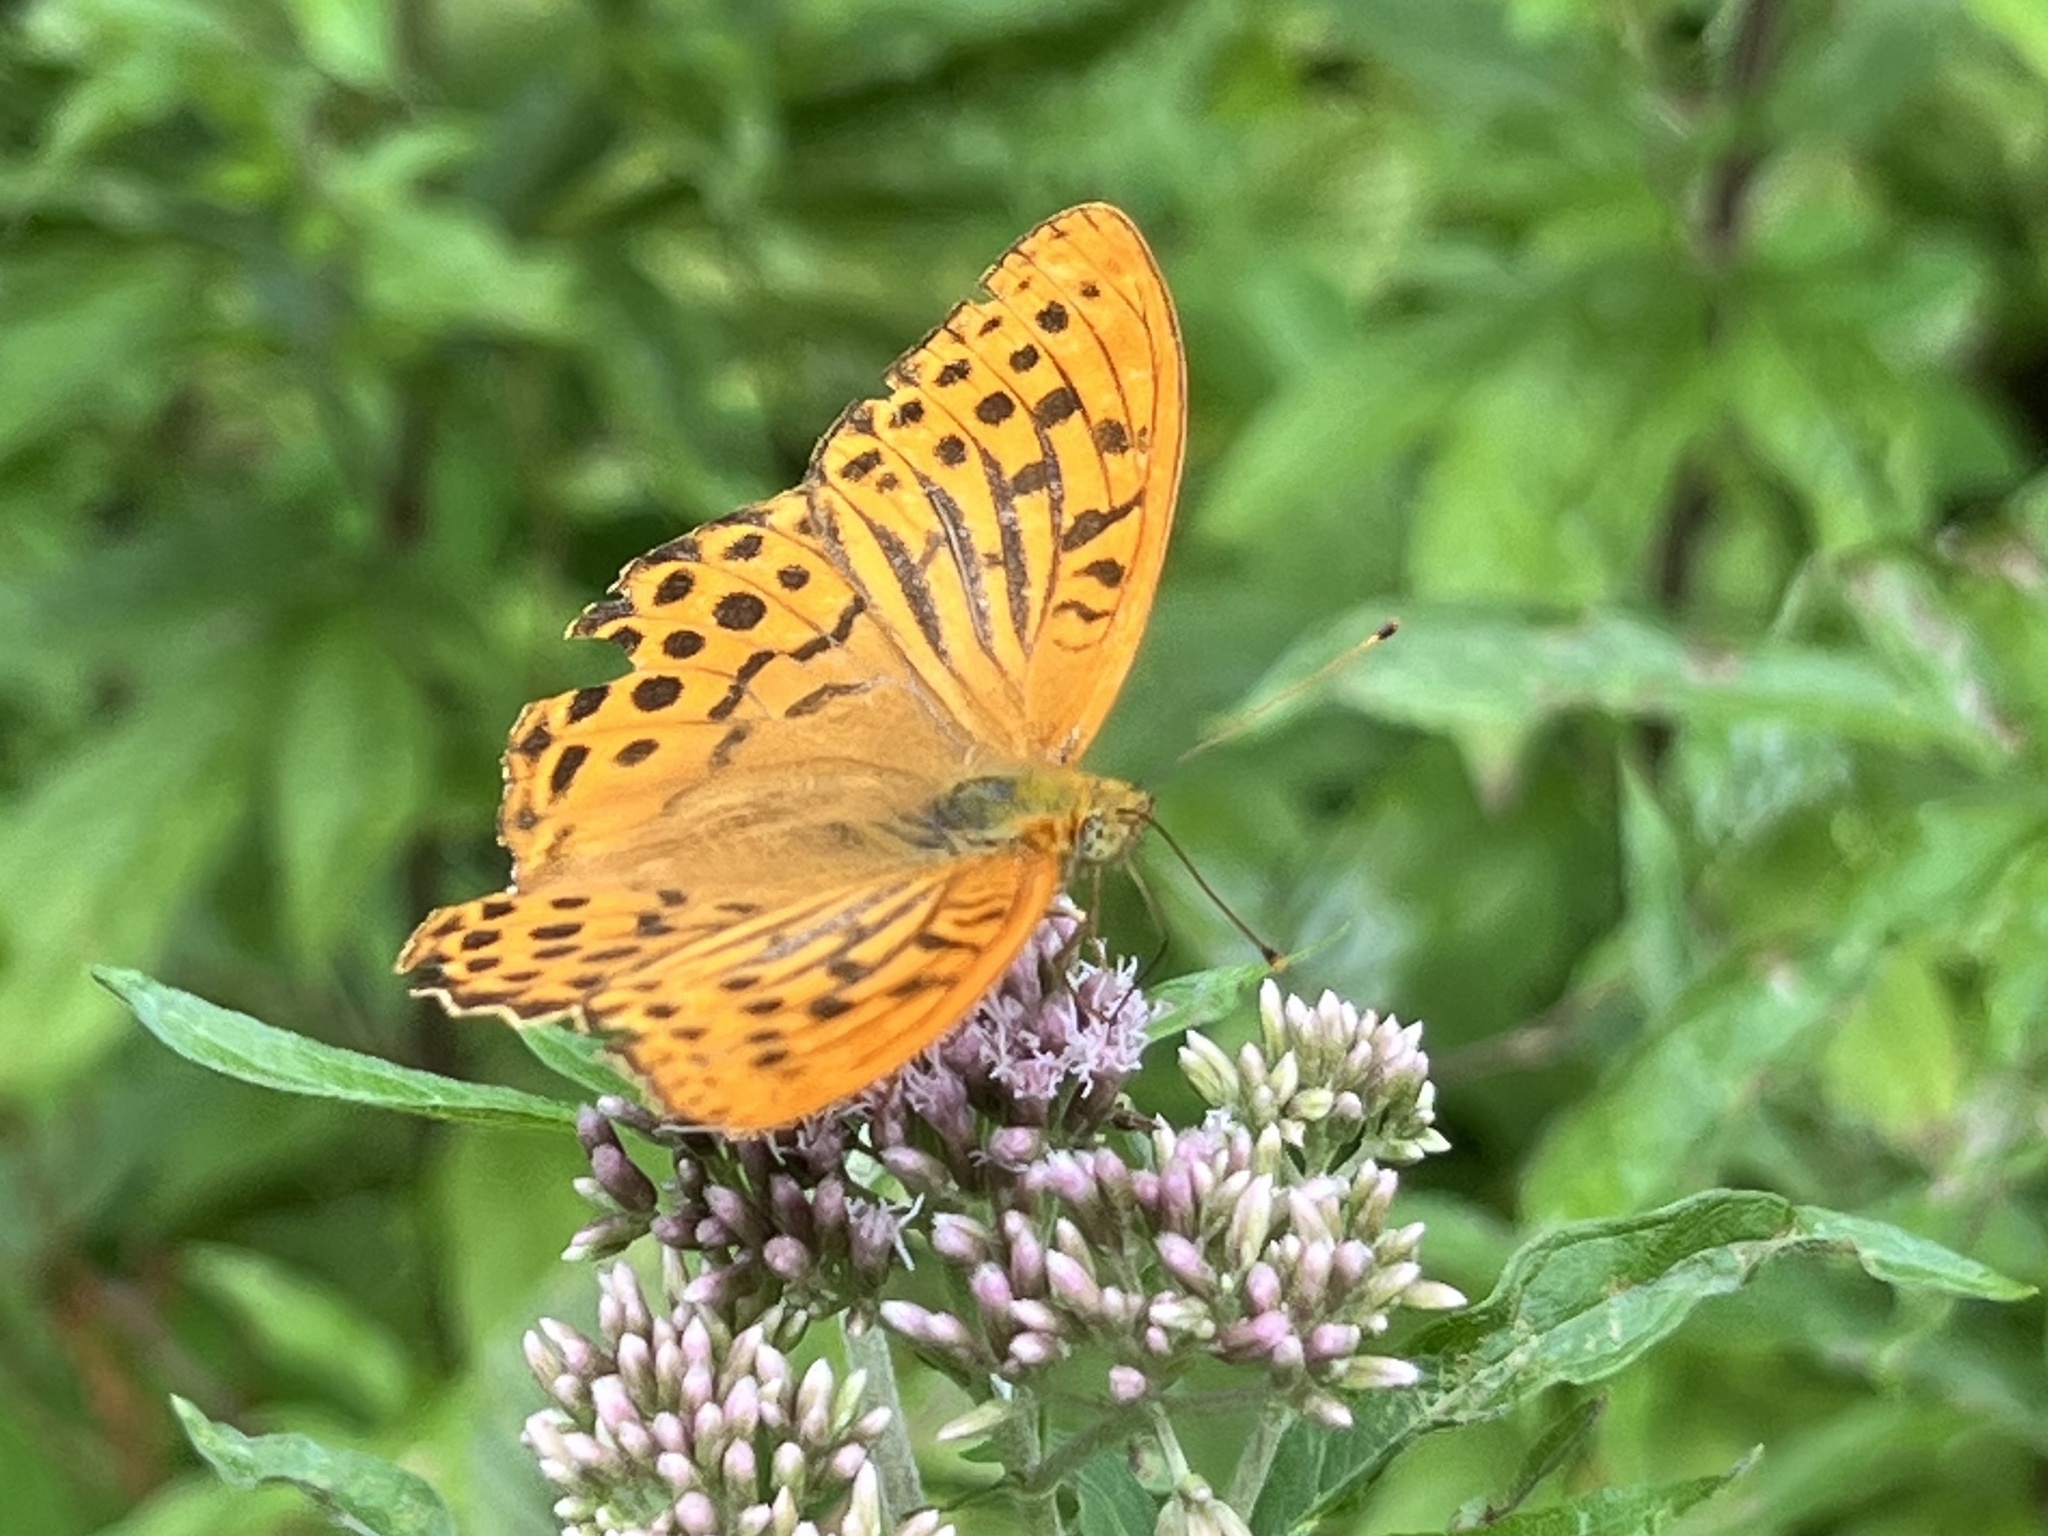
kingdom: Animalia
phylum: Arthropoda
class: Insecta
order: Lepidoptera
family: Nymphalidae
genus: Argynnis
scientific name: Argynnis paphia
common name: Silver-washed fritillary
